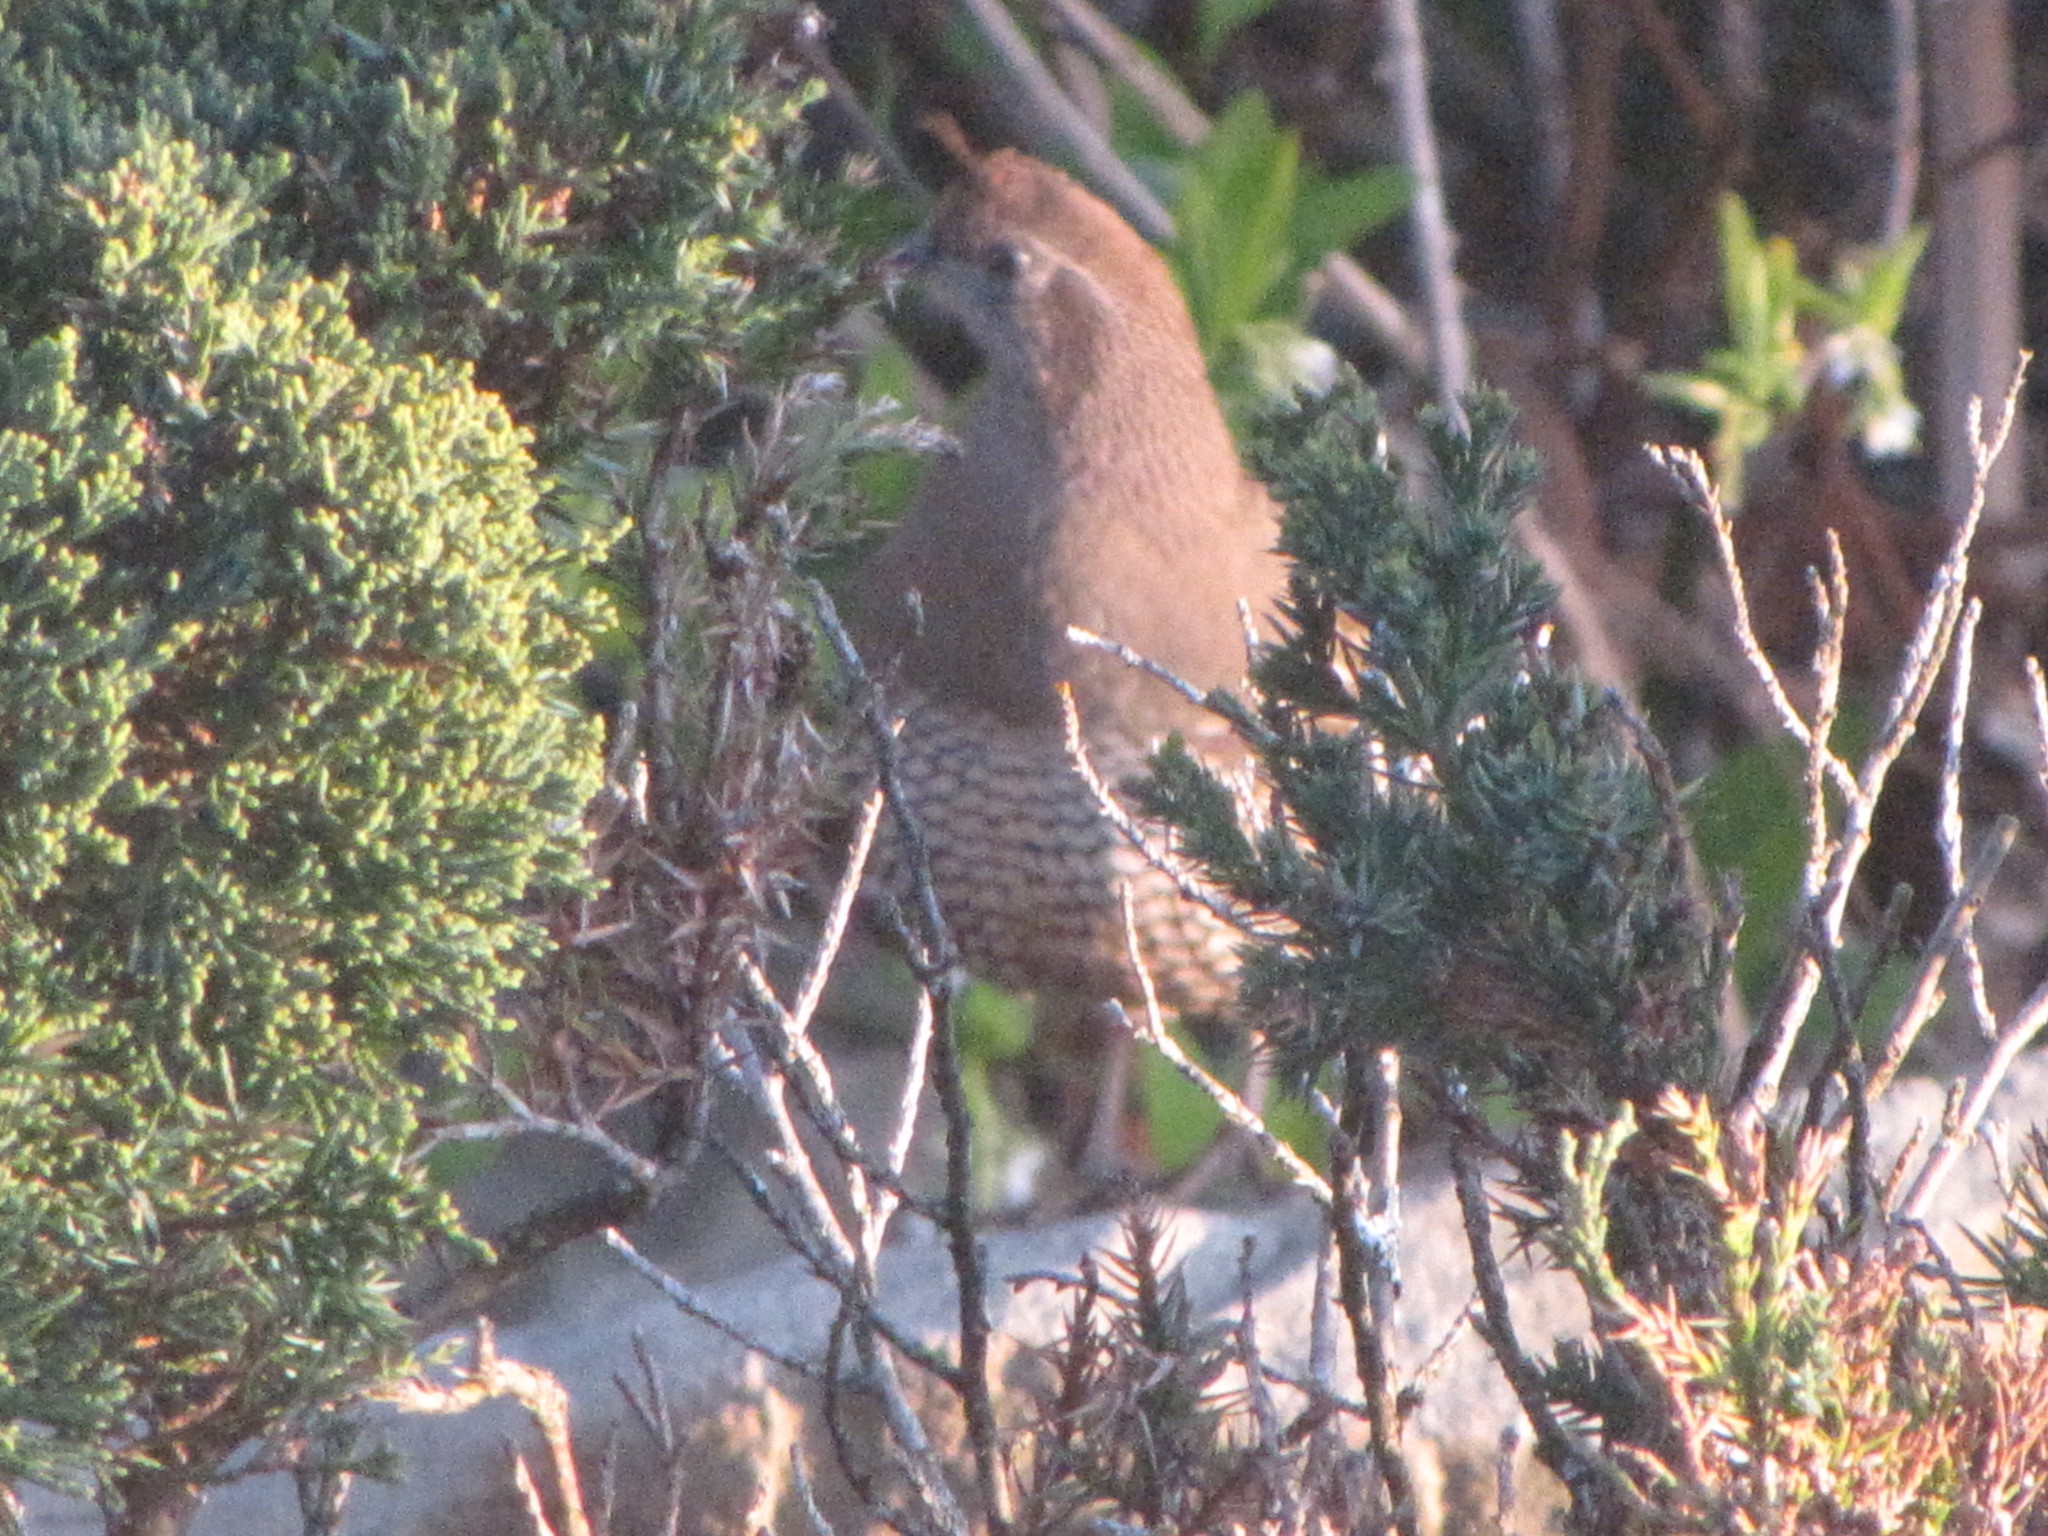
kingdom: Animalia
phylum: Chordata
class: Aves
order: Galliformes
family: Odontophoridae
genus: Callipepla
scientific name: Callipepla californica
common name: California quail
